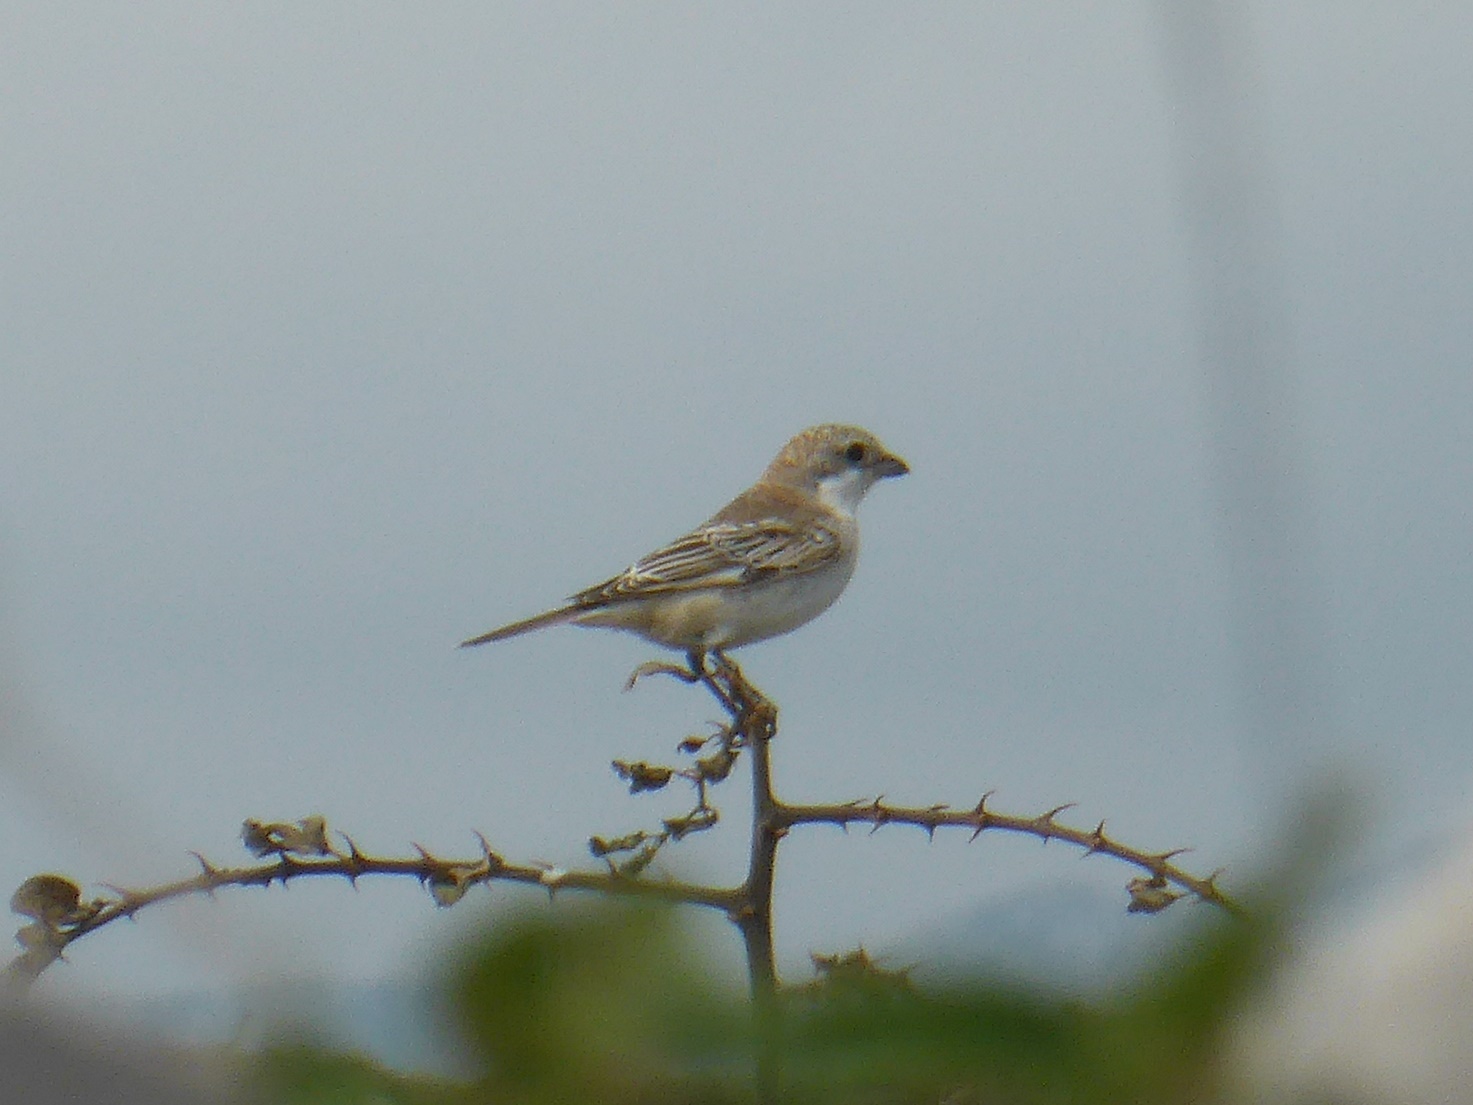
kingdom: Animalia
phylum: Chordata
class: Aves
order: Passeriformes
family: Laniidae
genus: Lanius
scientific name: Lanius senator
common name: Woodchat shrike
